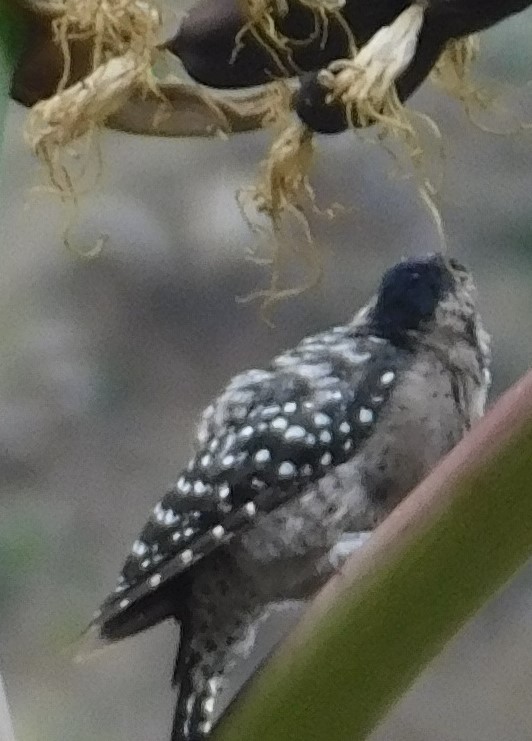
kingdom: Animalia
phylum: Chordata
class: Aves
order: Piciformes
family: Picidae
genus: Dryobates
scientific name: Dryobates scalaris
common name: Ladder-backed woodpecker
